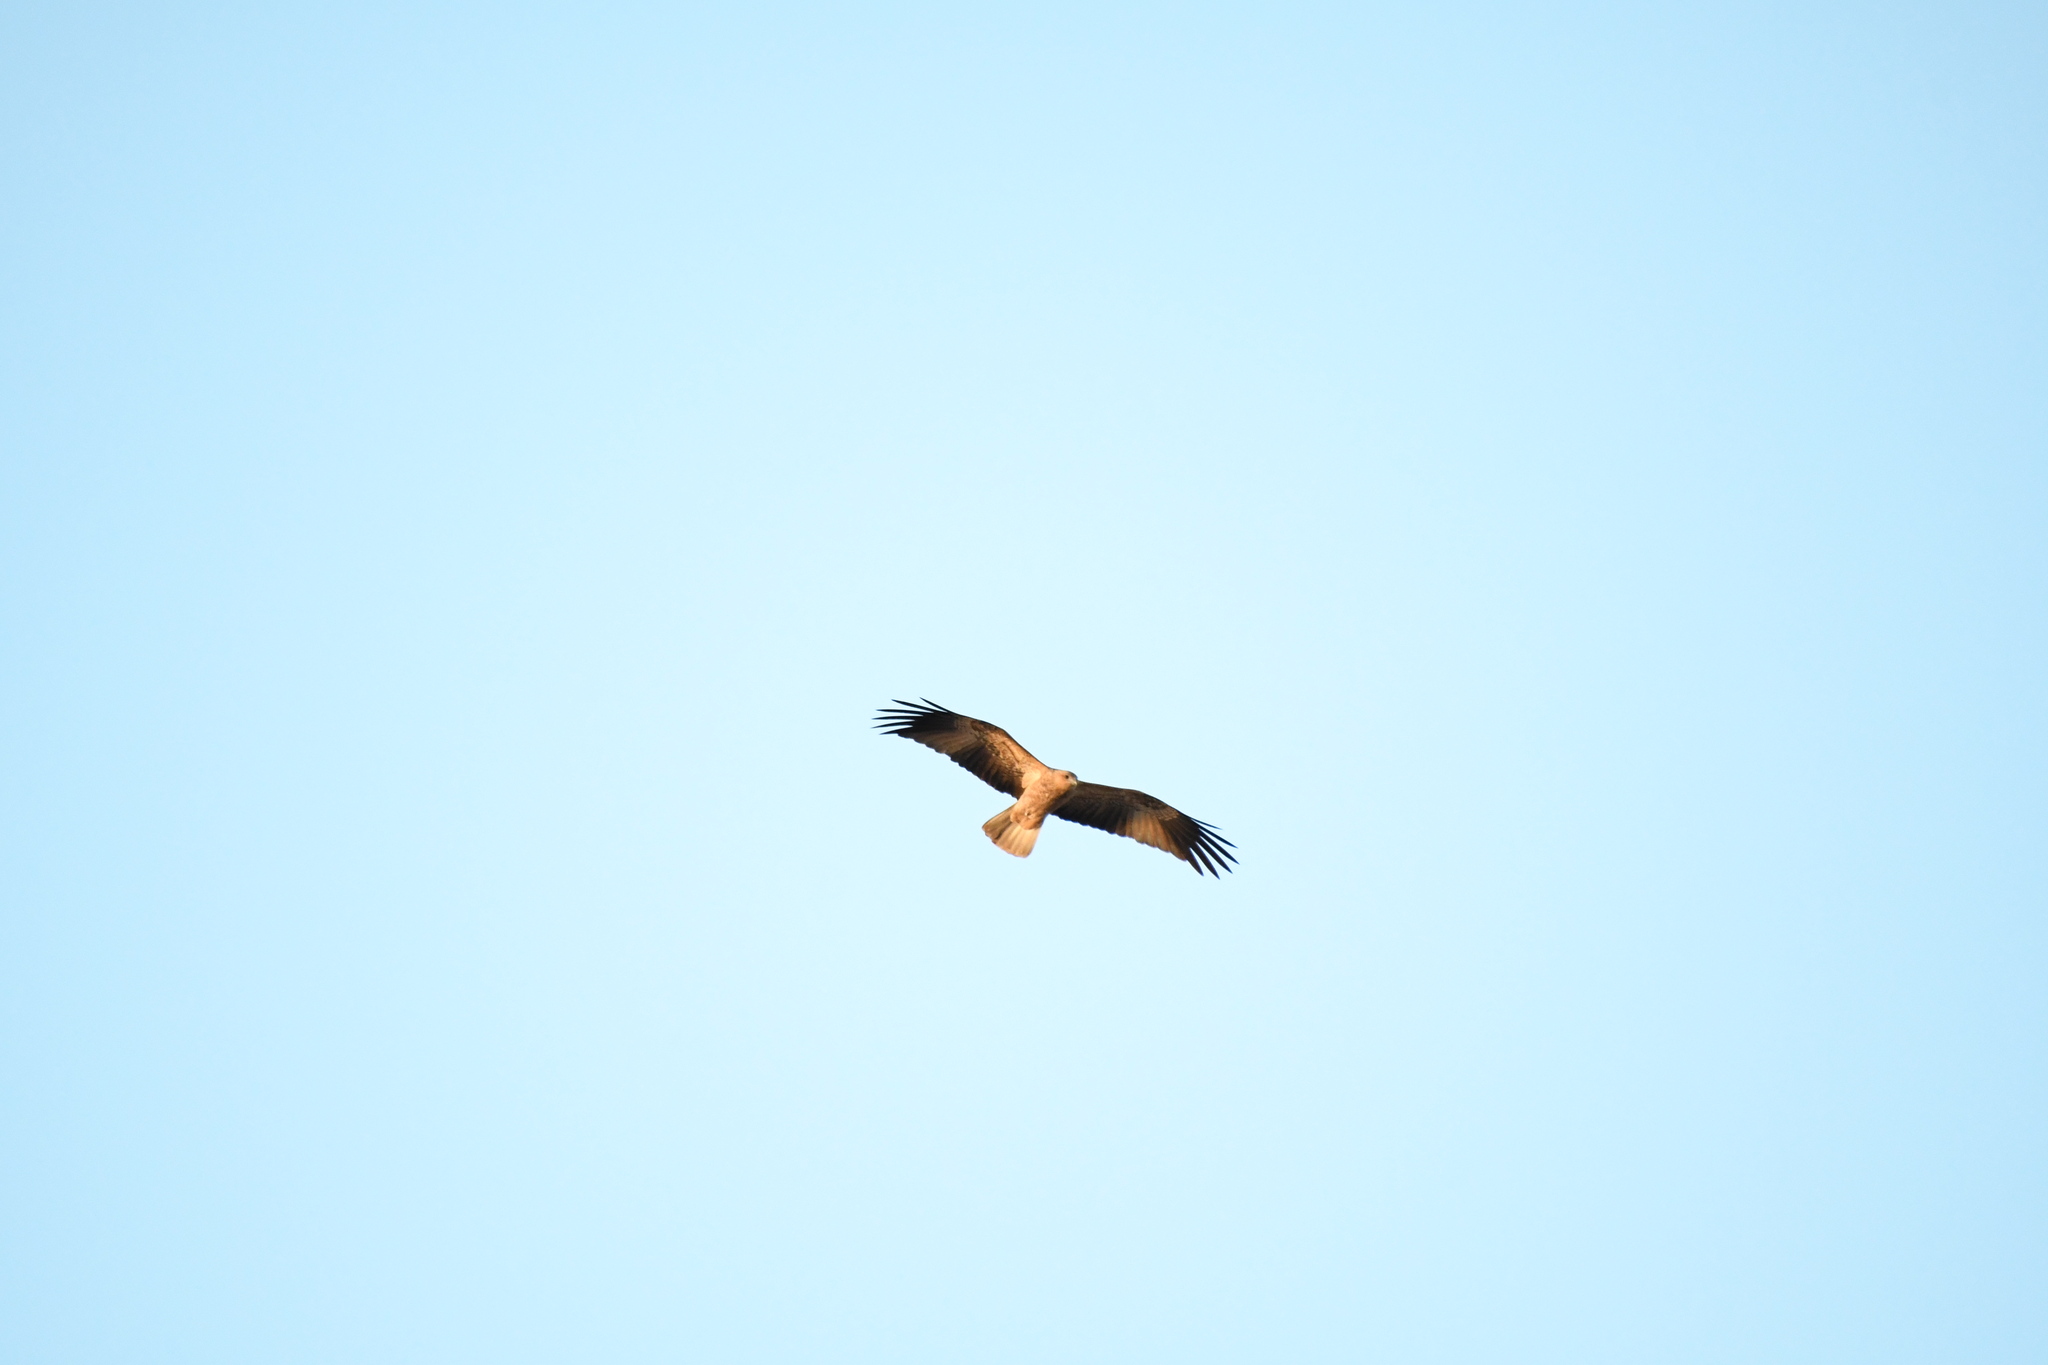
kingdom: Animalia
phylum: Chordata
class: Aves
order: Accipitriformes
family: Accipitridae
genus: Haliastur
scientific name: Haliastur sphenurus
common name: Whistling kite
